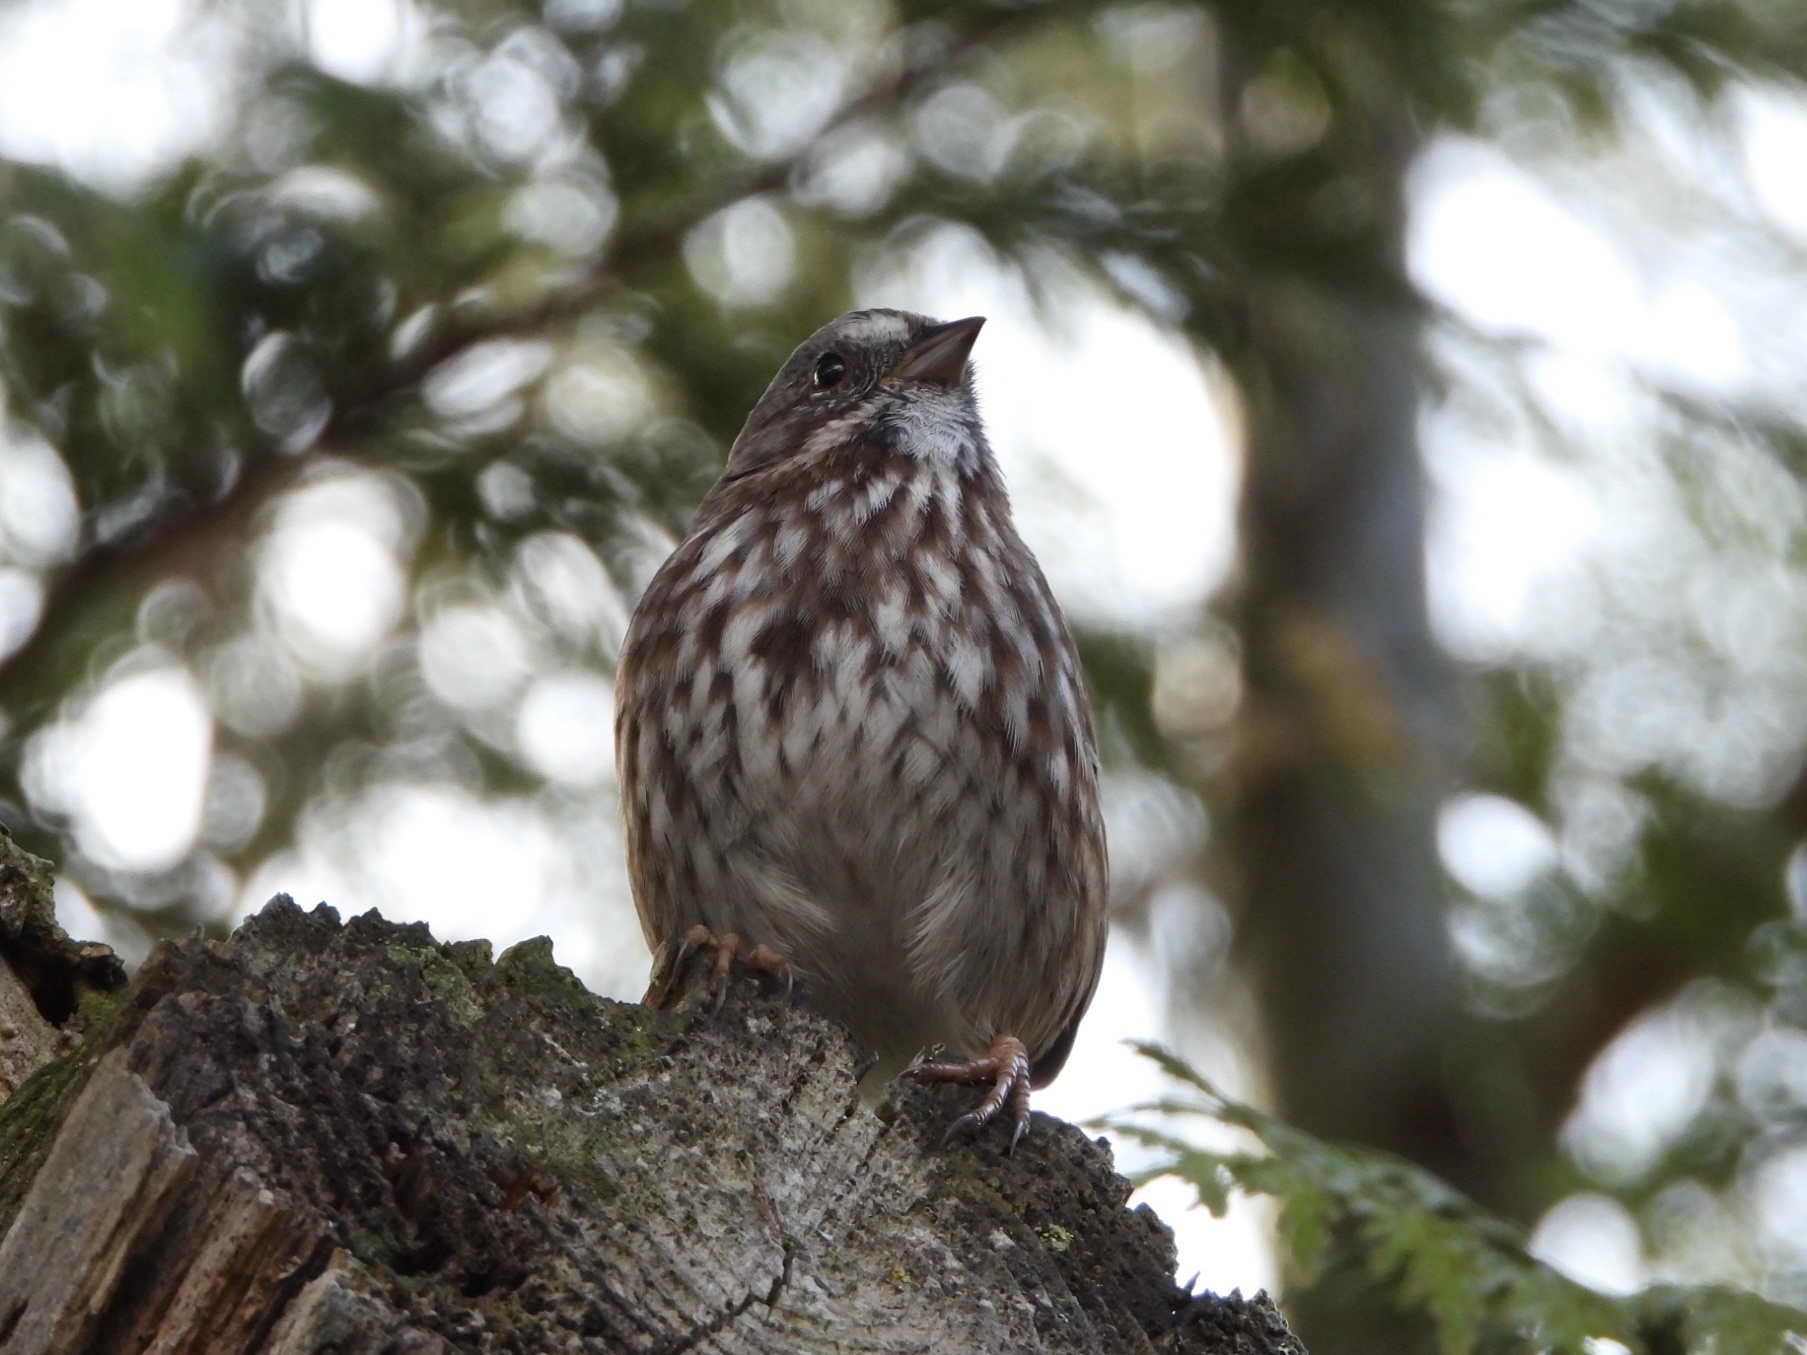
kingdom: Animalia
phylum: Chordata
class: Aves
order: Passeriformes
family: Passerellidae
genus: Melospiza
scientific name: Melospiza melodia
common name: Song sparrow
